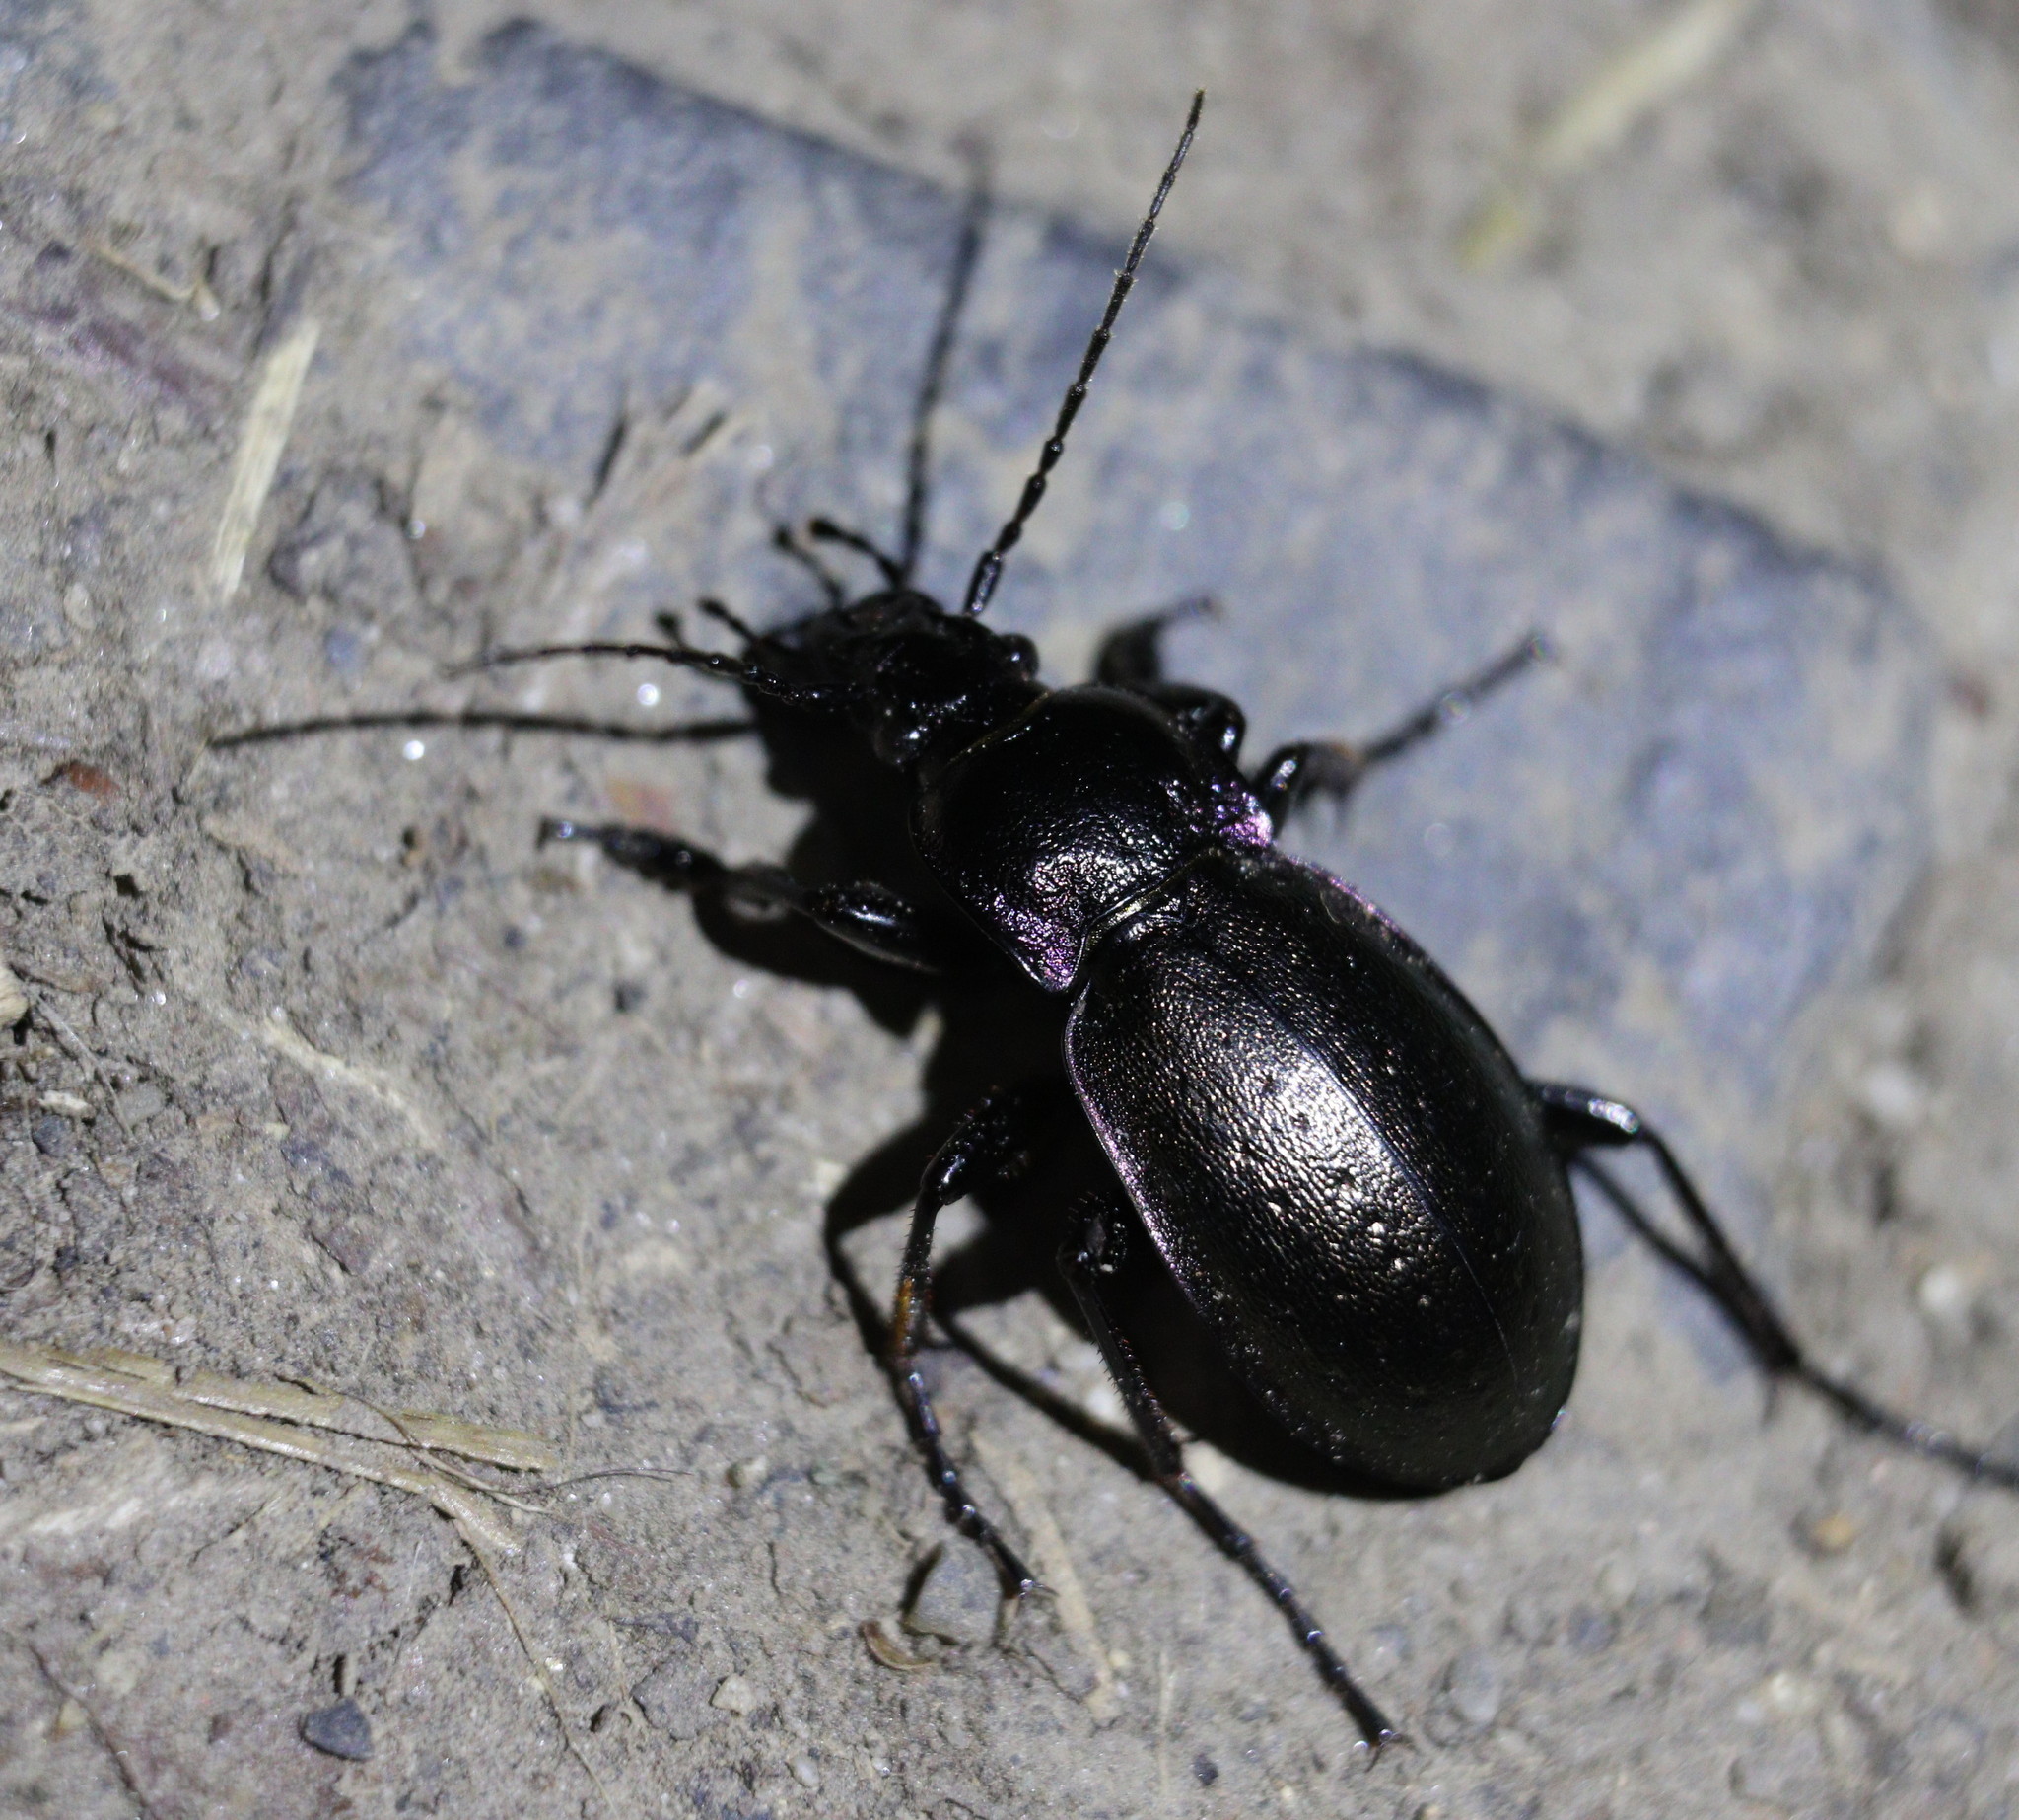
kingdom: Animalia
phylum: Arthropoda
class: Insecta
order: Coleoptera
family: Carabidae
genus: Carabus
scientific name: Carabus nemoralis
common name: European ground beetle
